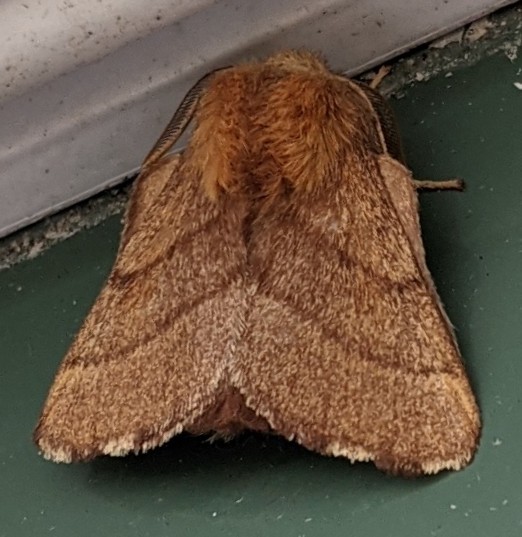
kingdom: Animalia
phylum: Arthropoda
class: Insecta
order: Lepidoptera
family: Lasiocampidae
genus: Malacosoma
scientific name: Malacosoma disstria
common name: Forest tent caterpillar
